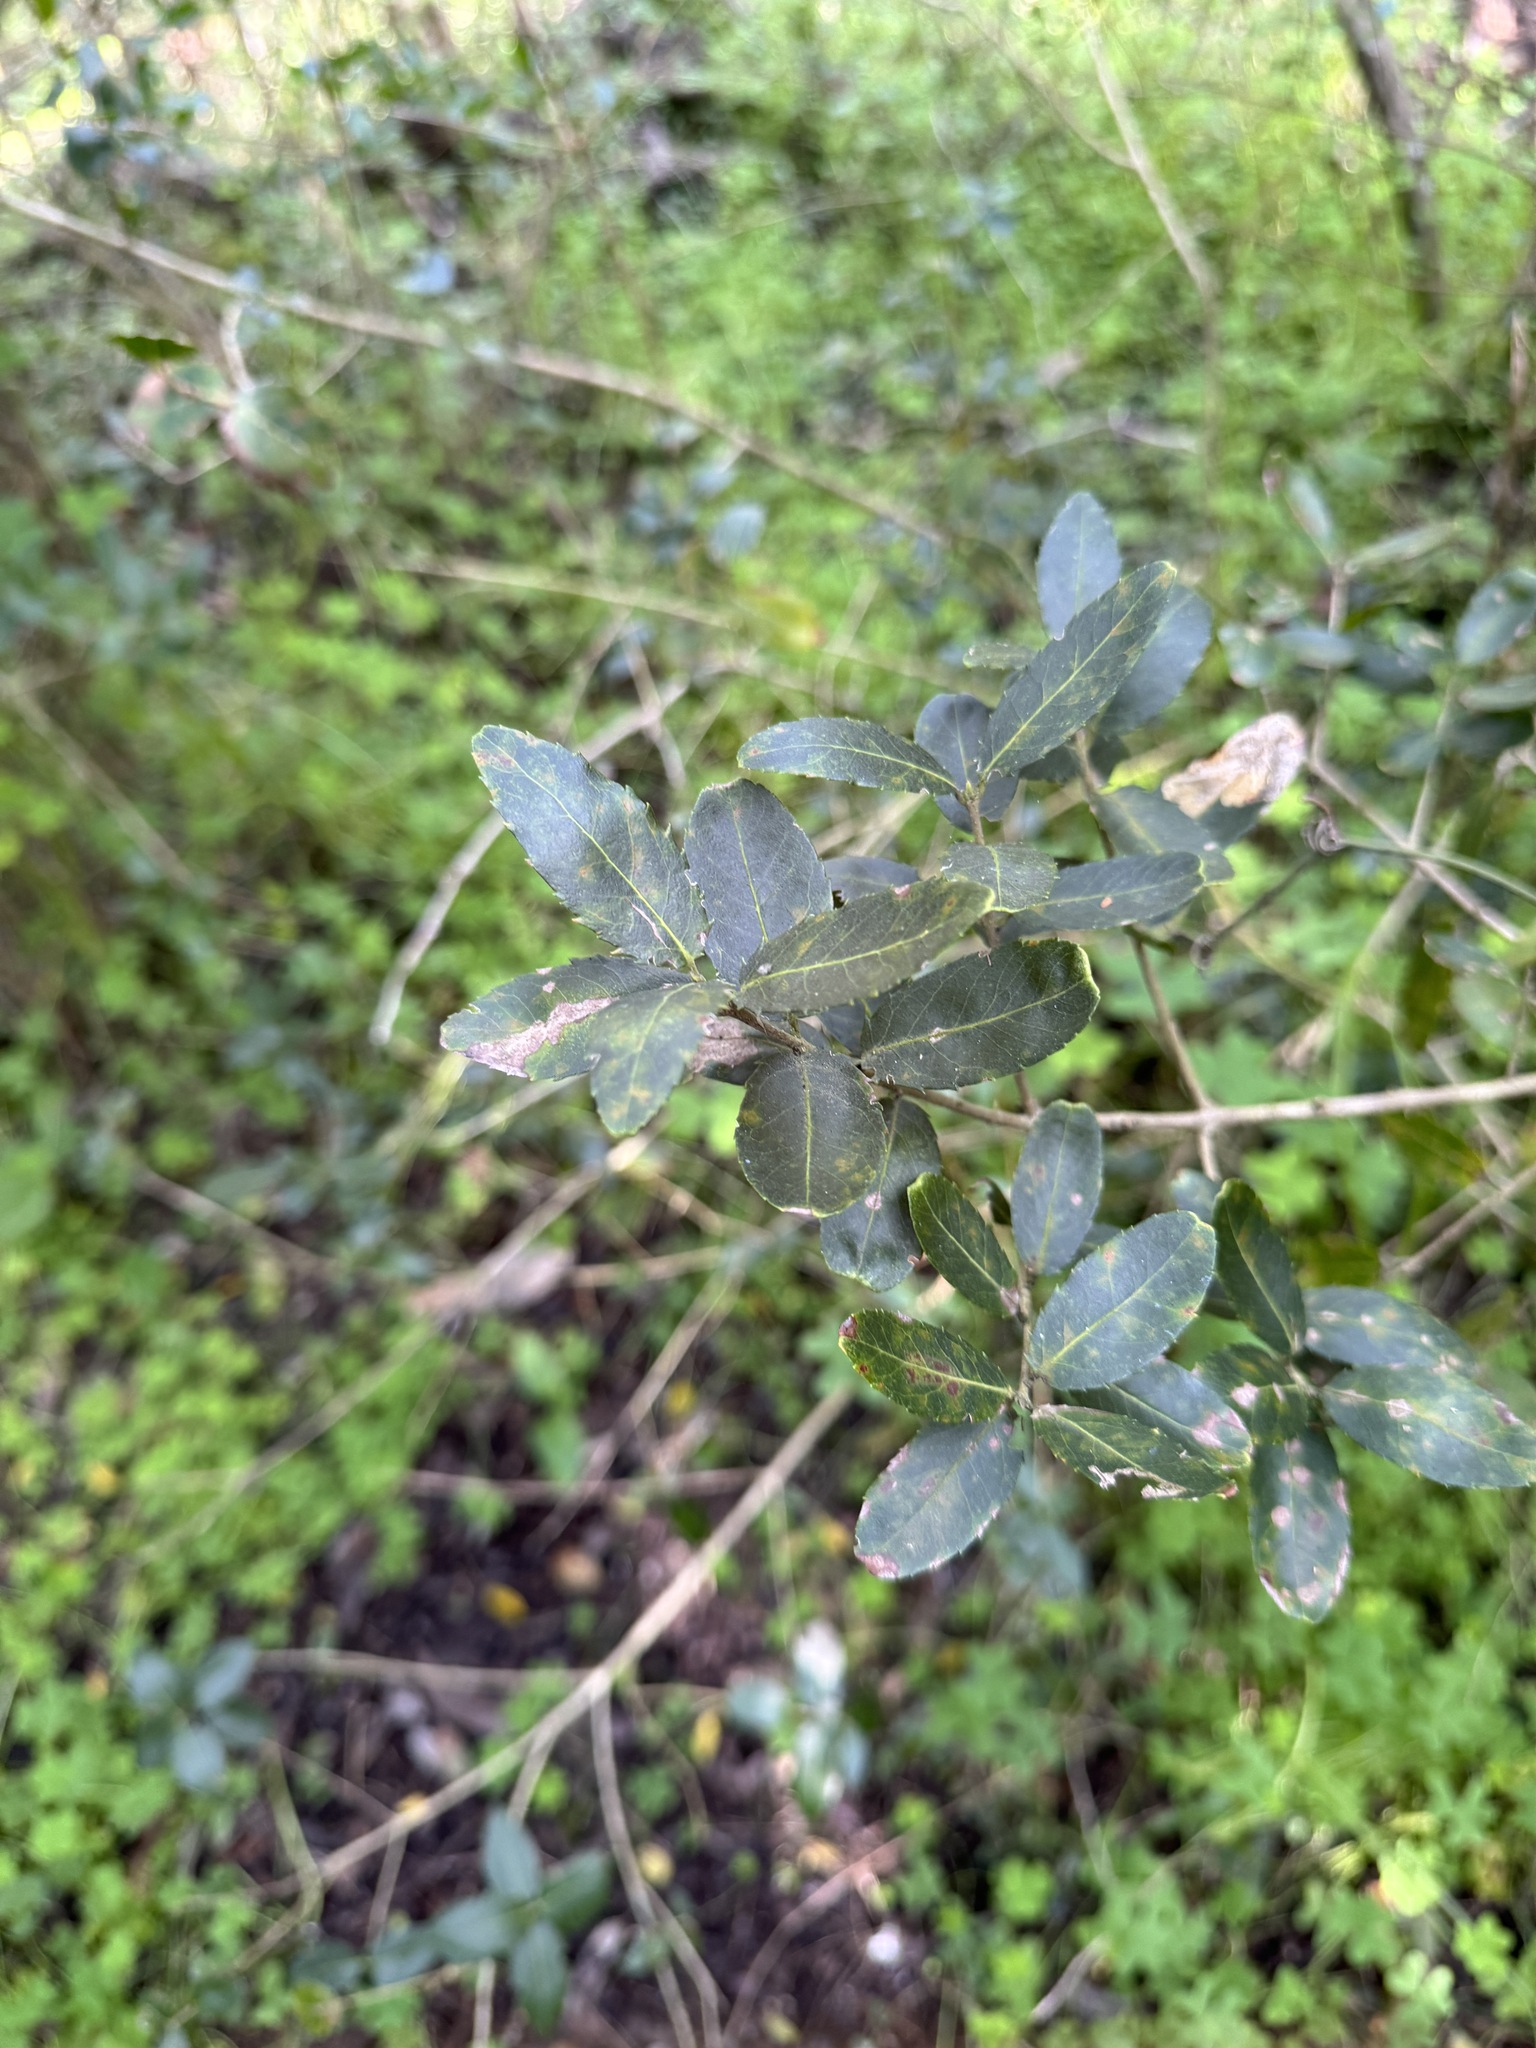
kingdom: Plantae
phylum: Tracheophyta
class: Magnoliopsida
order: Lamiales
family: Oleaceae
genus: Phillyrea
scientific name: Phillyrea latifolia
